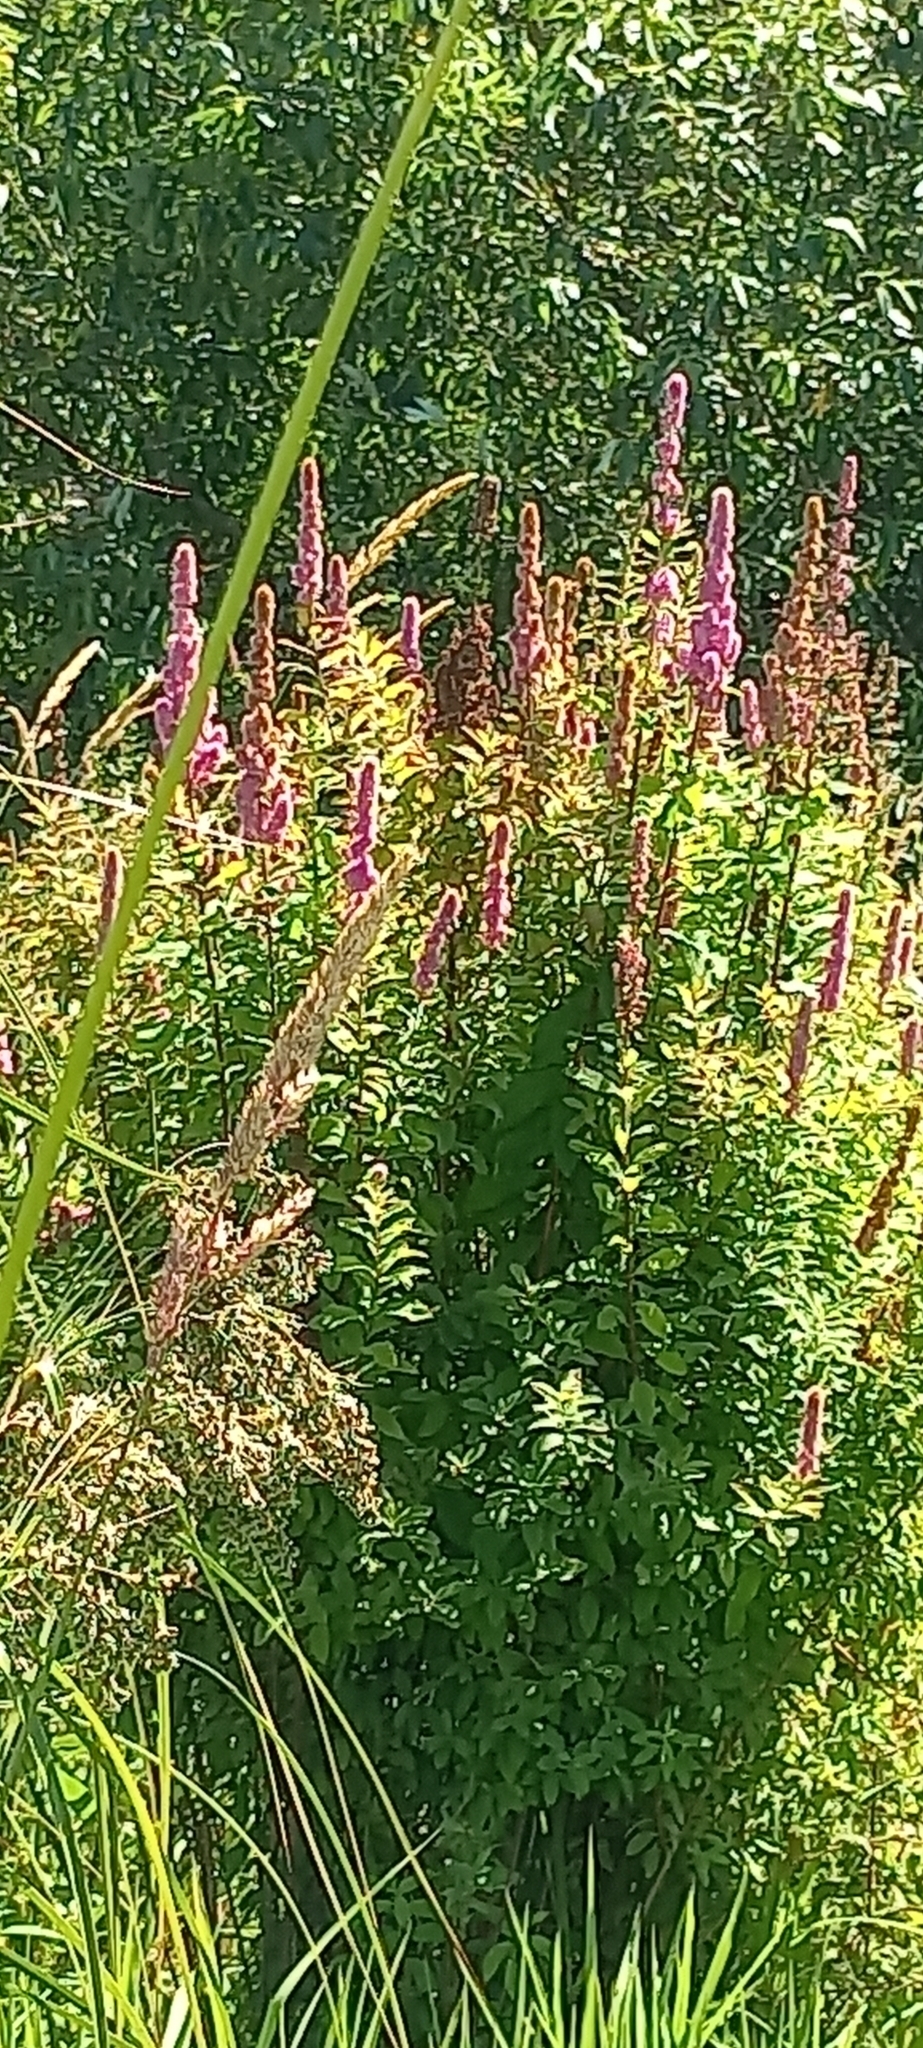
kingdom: Plantae
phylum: Tracheophyta
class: Magnoliopsida
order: Rosales
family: Rosaceae
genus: Spiraea
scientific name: Spiraea douglasii
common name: Steeplebush
